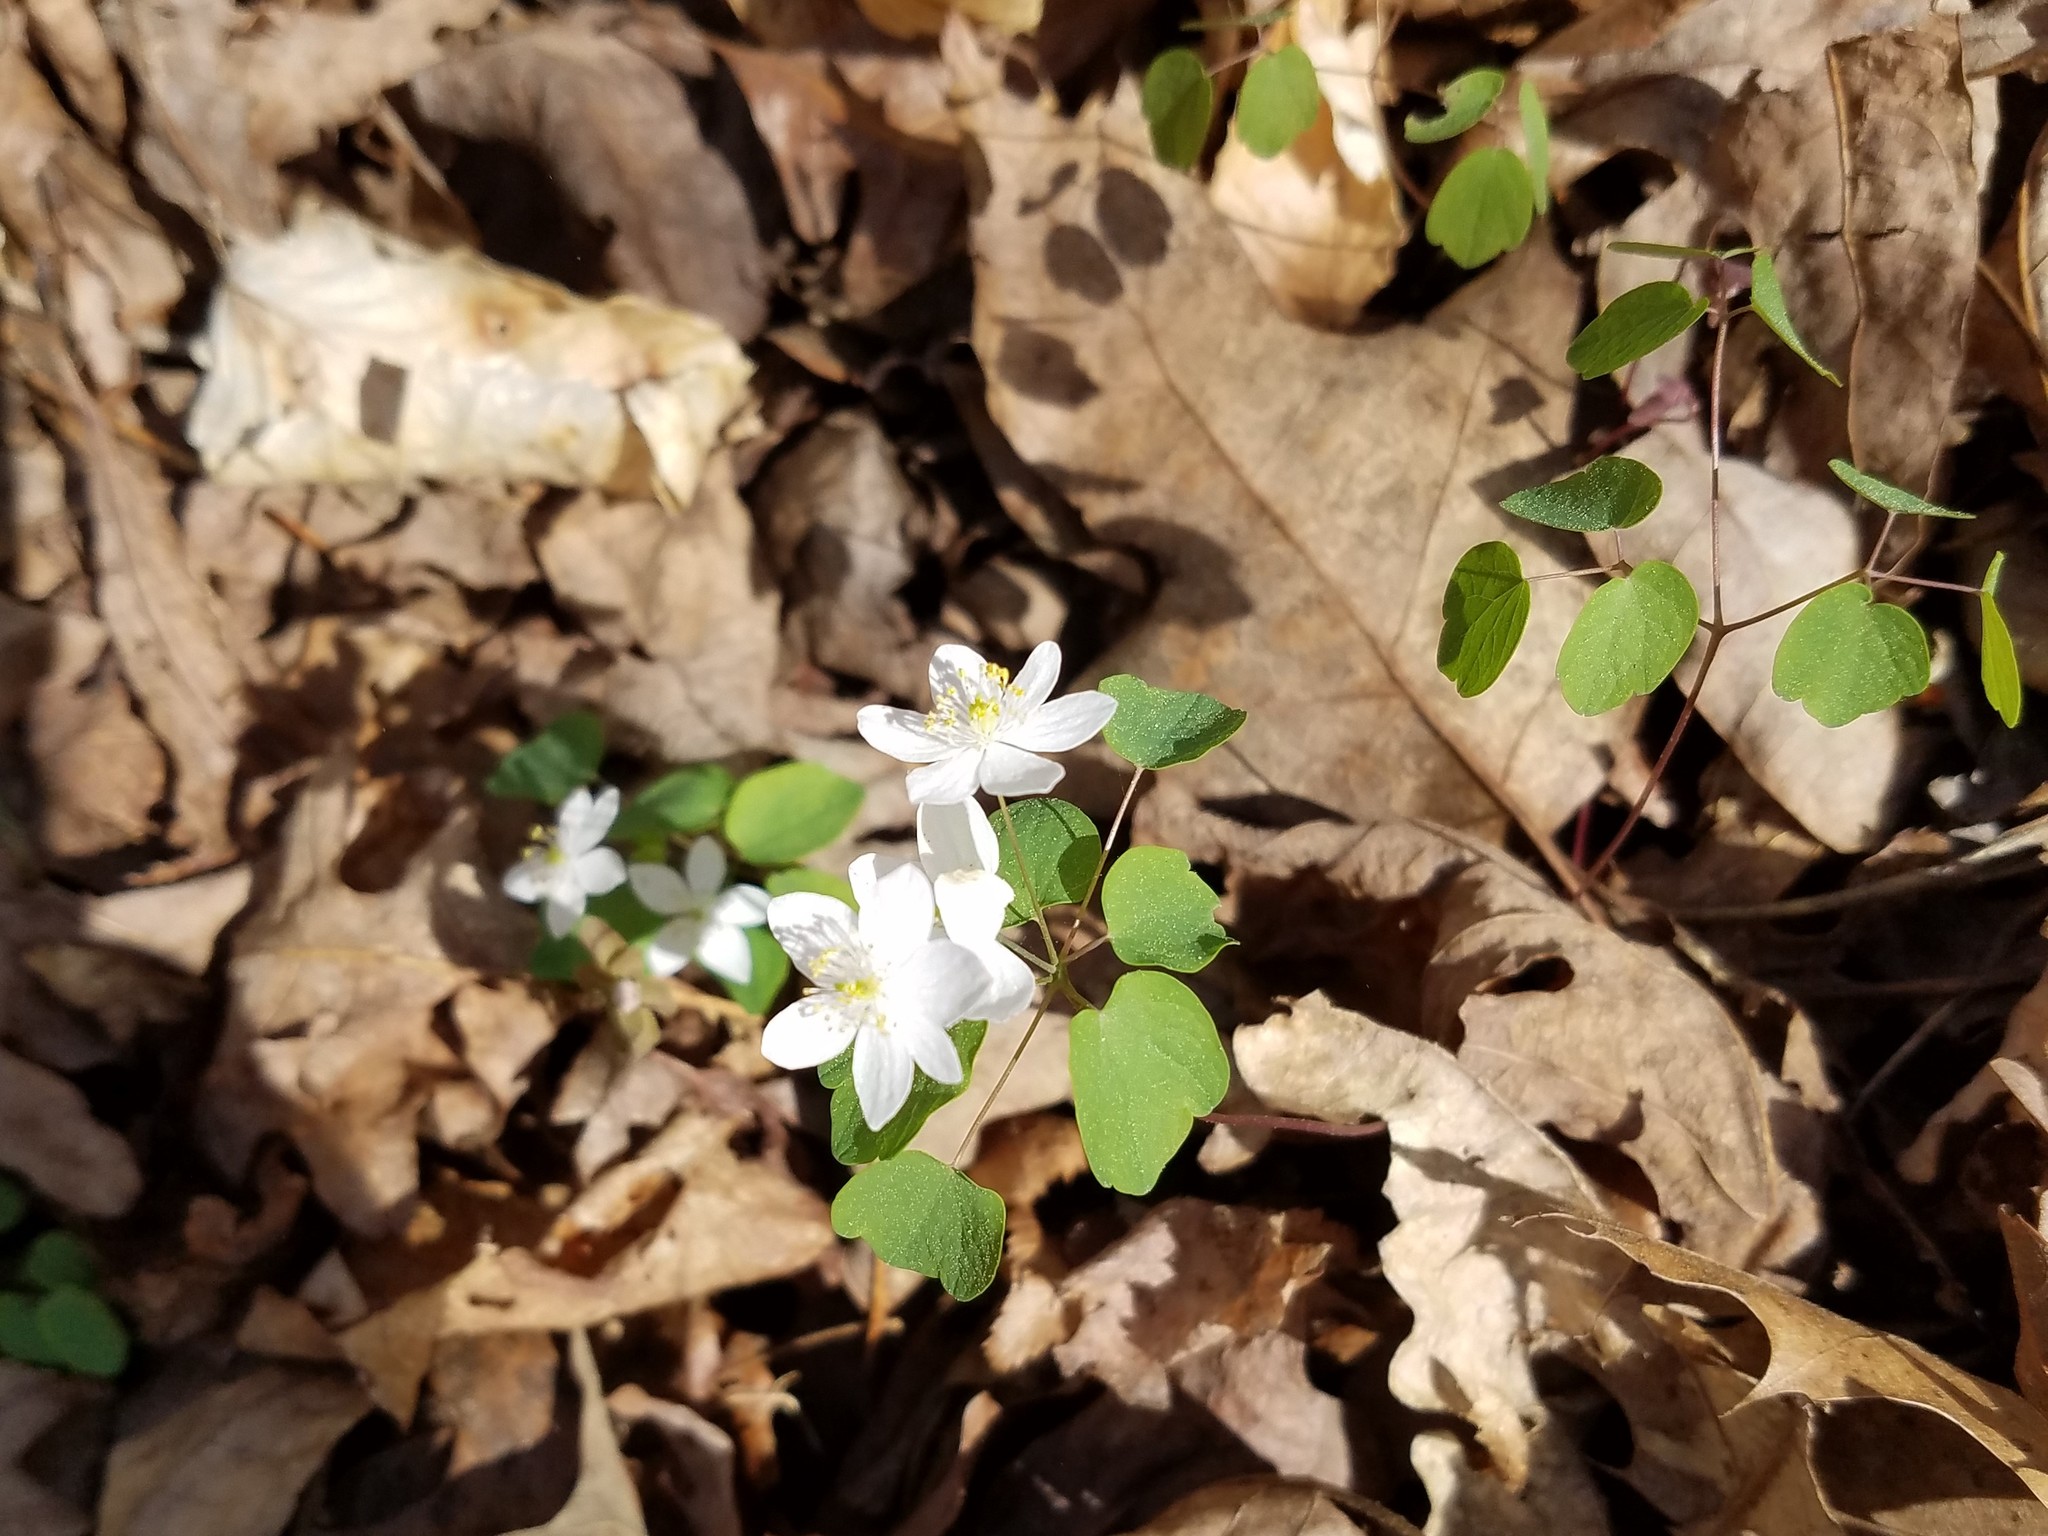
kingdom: Plantae
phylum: Tracheophyta
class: Magnoliopsida
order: Ranunculales
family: Ranunculaceae
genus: Thalictrum
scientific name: Thalictrum thalictroides
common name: Rue-anemone
